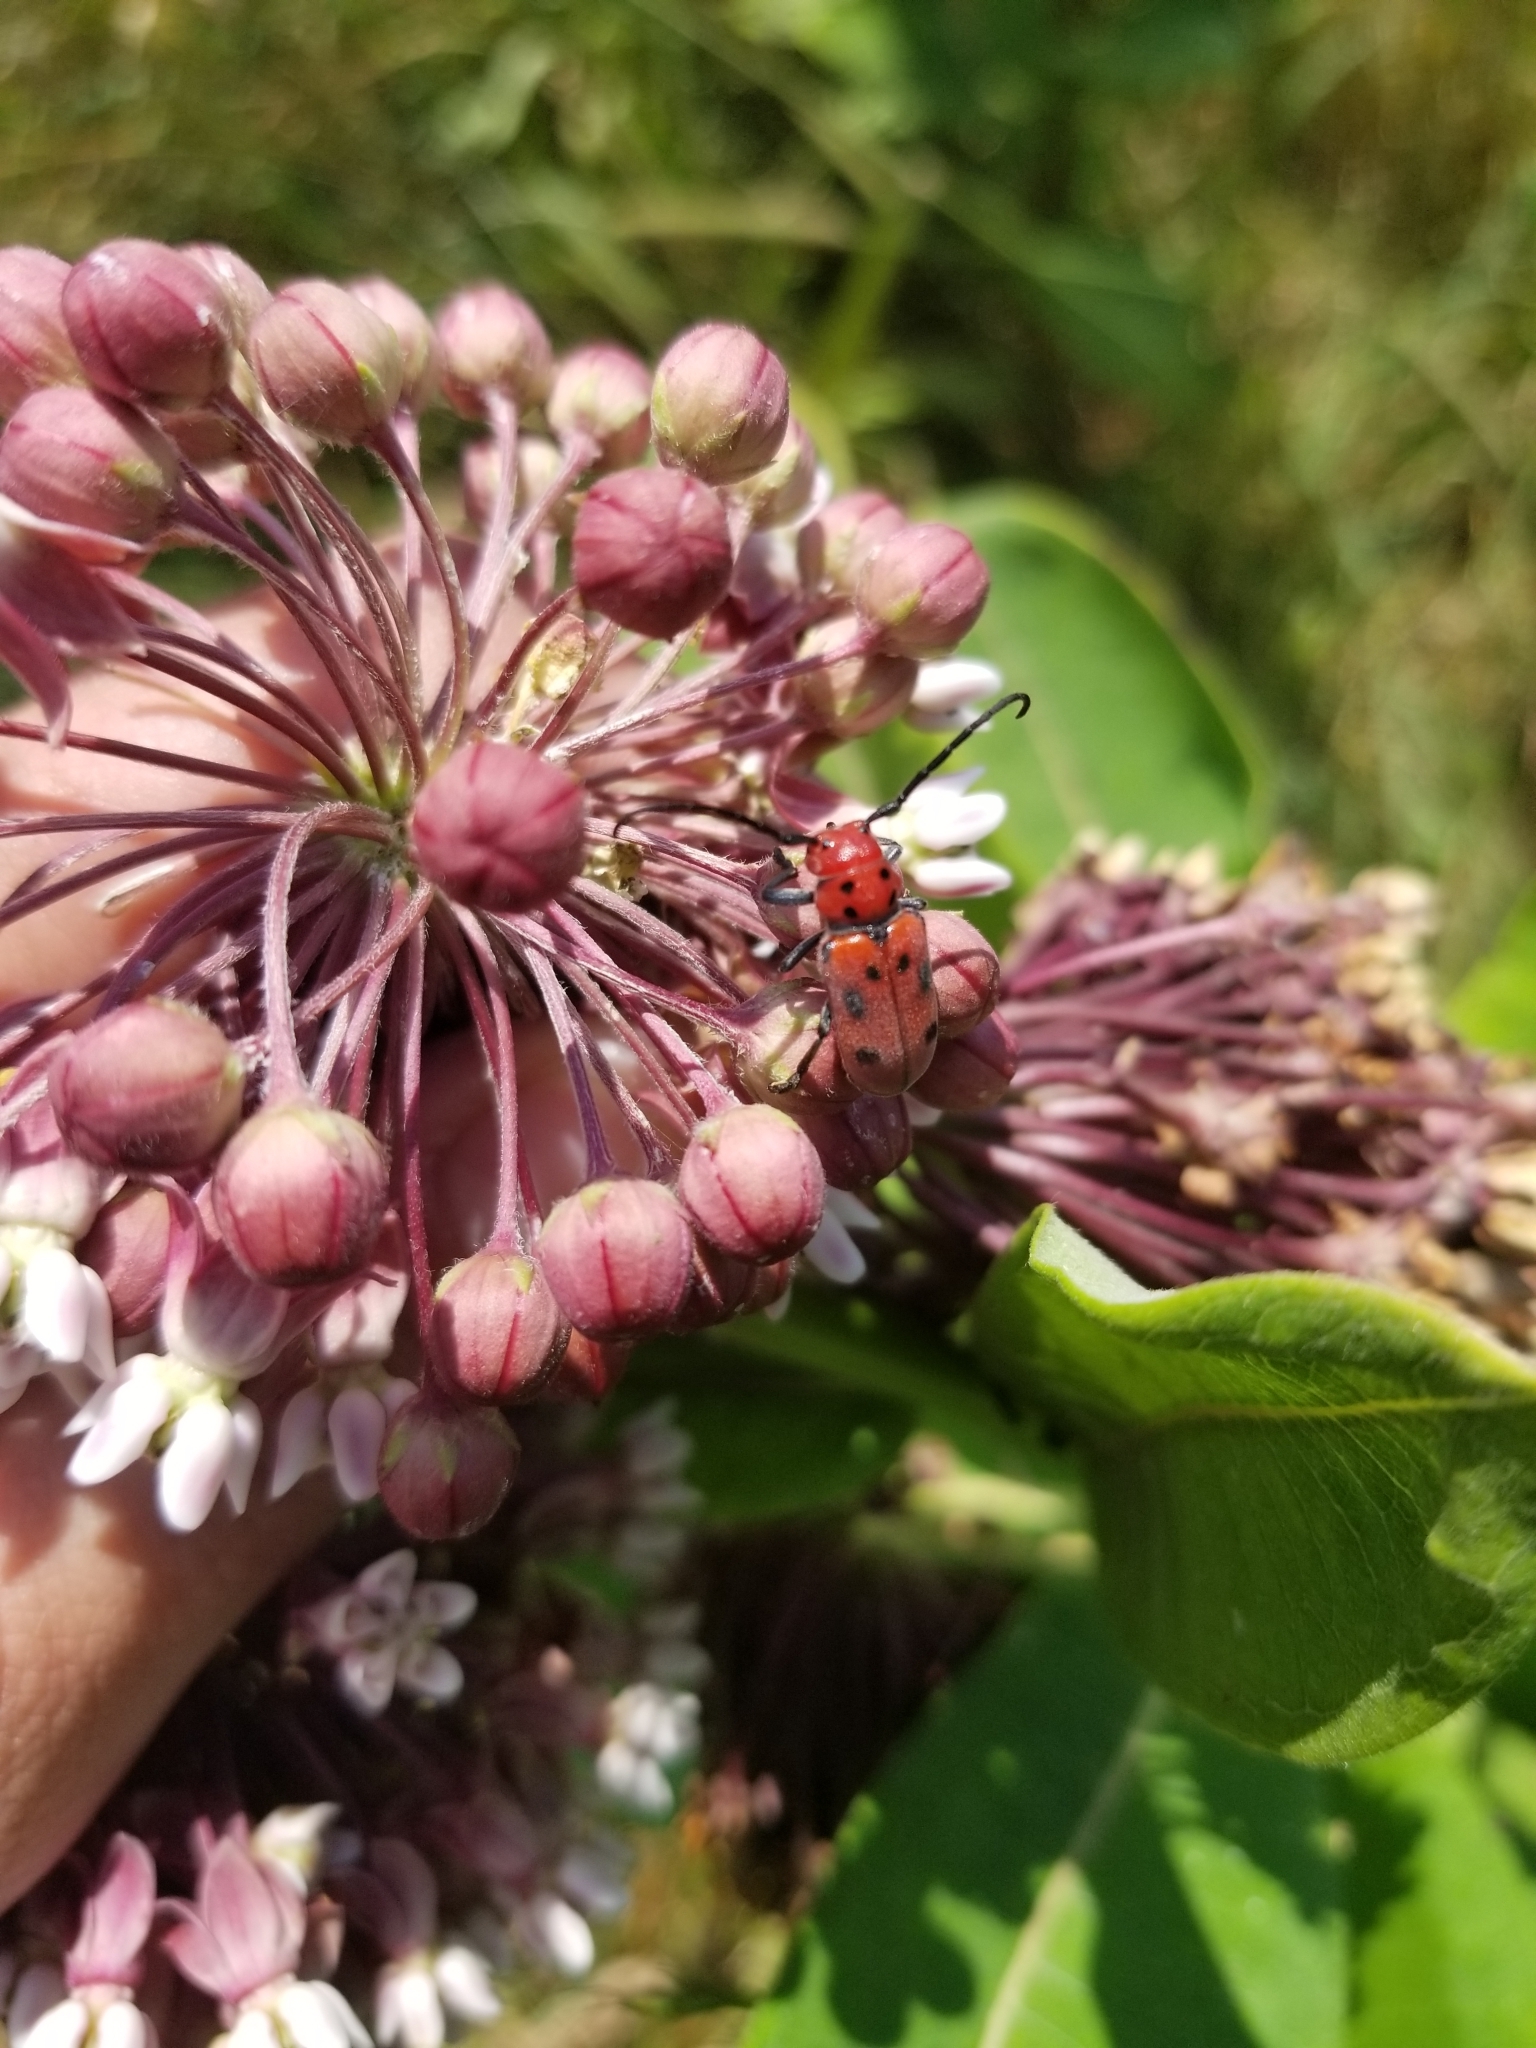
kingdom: Animalia
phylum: Arthropoda
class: Insecta
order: Coleoptera
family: Cerambycidae
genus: Tetraopes
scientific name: Tetraopes tetrophthalmus
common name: Red milkweed beetle
